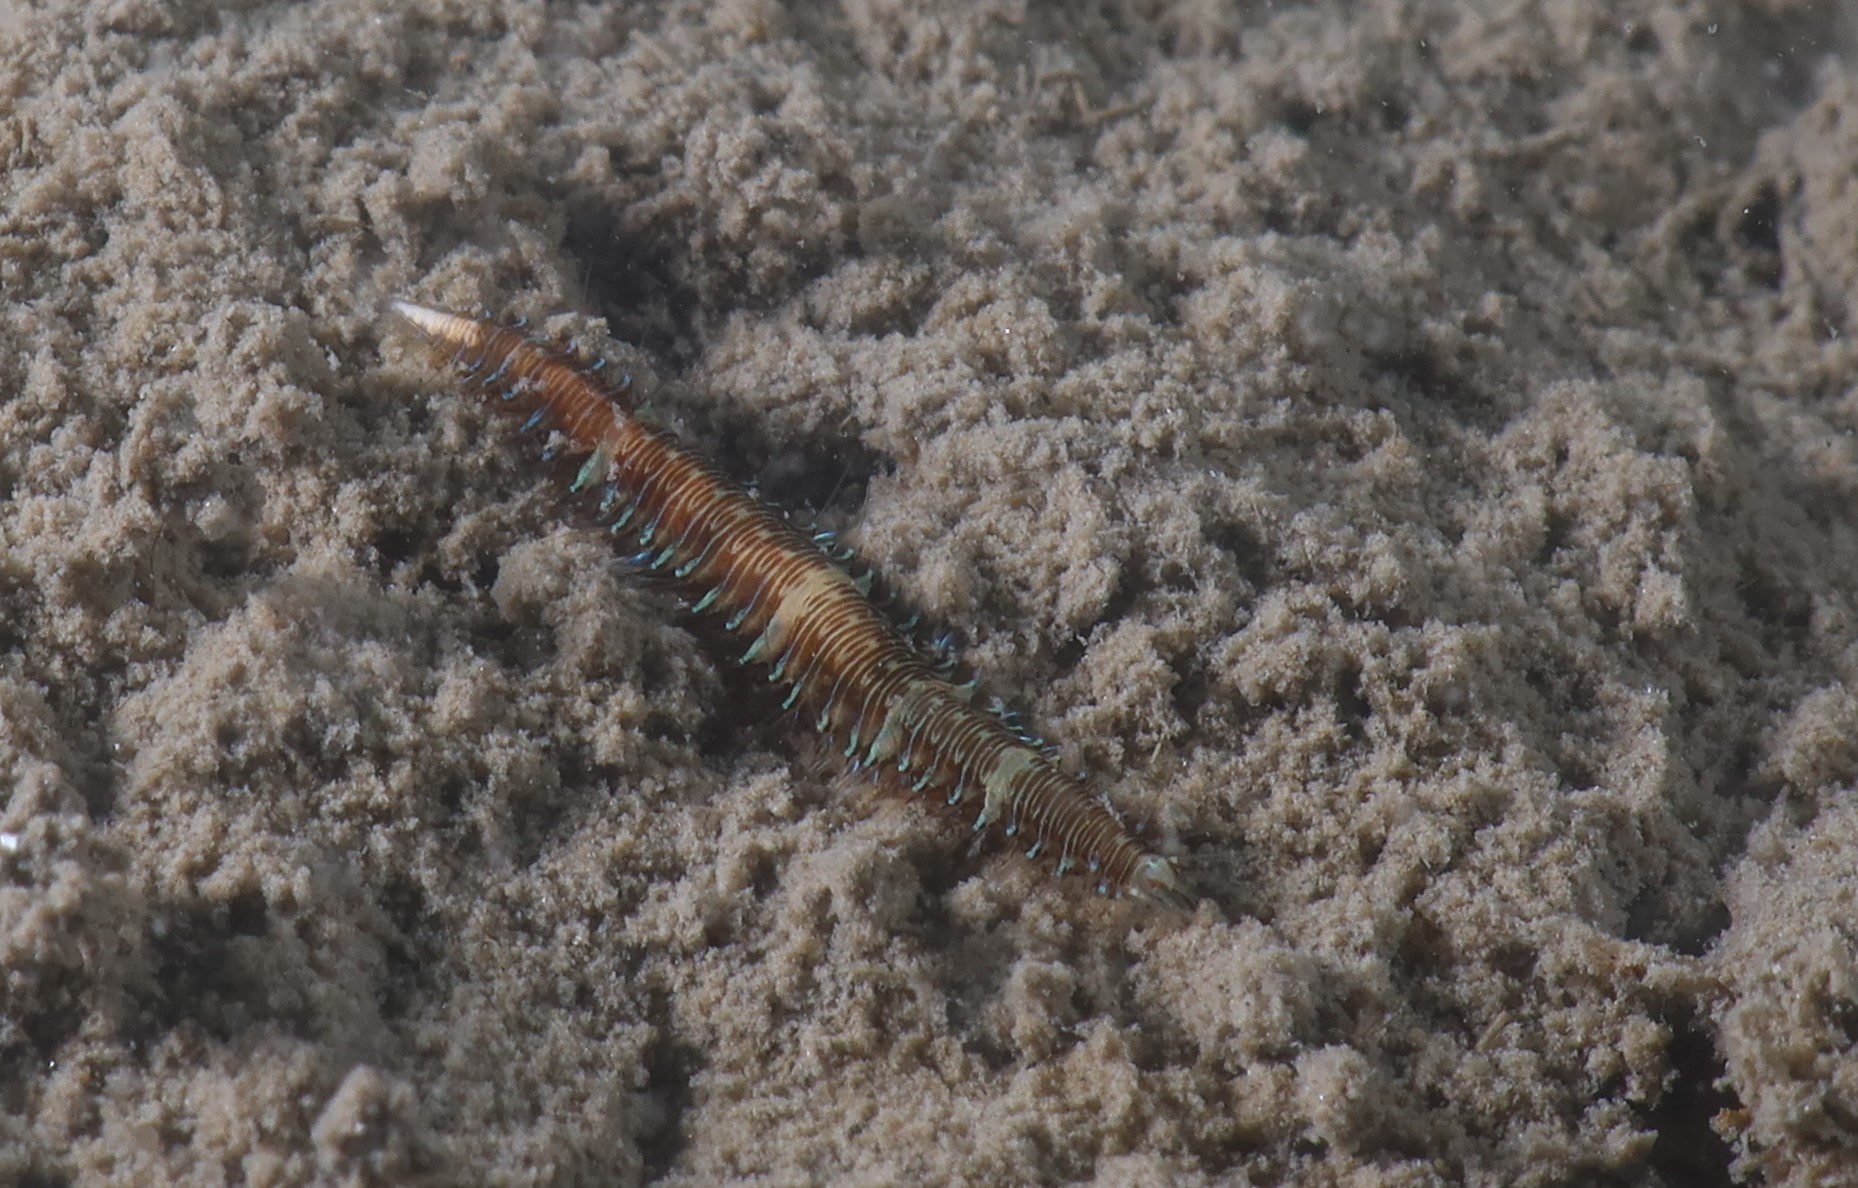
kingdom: Animalia
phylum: Annelida
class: Polychaeta
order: Phyllodocida
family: Hesionidae
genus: Oxydromus
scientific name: Oxydromus flexuosus
